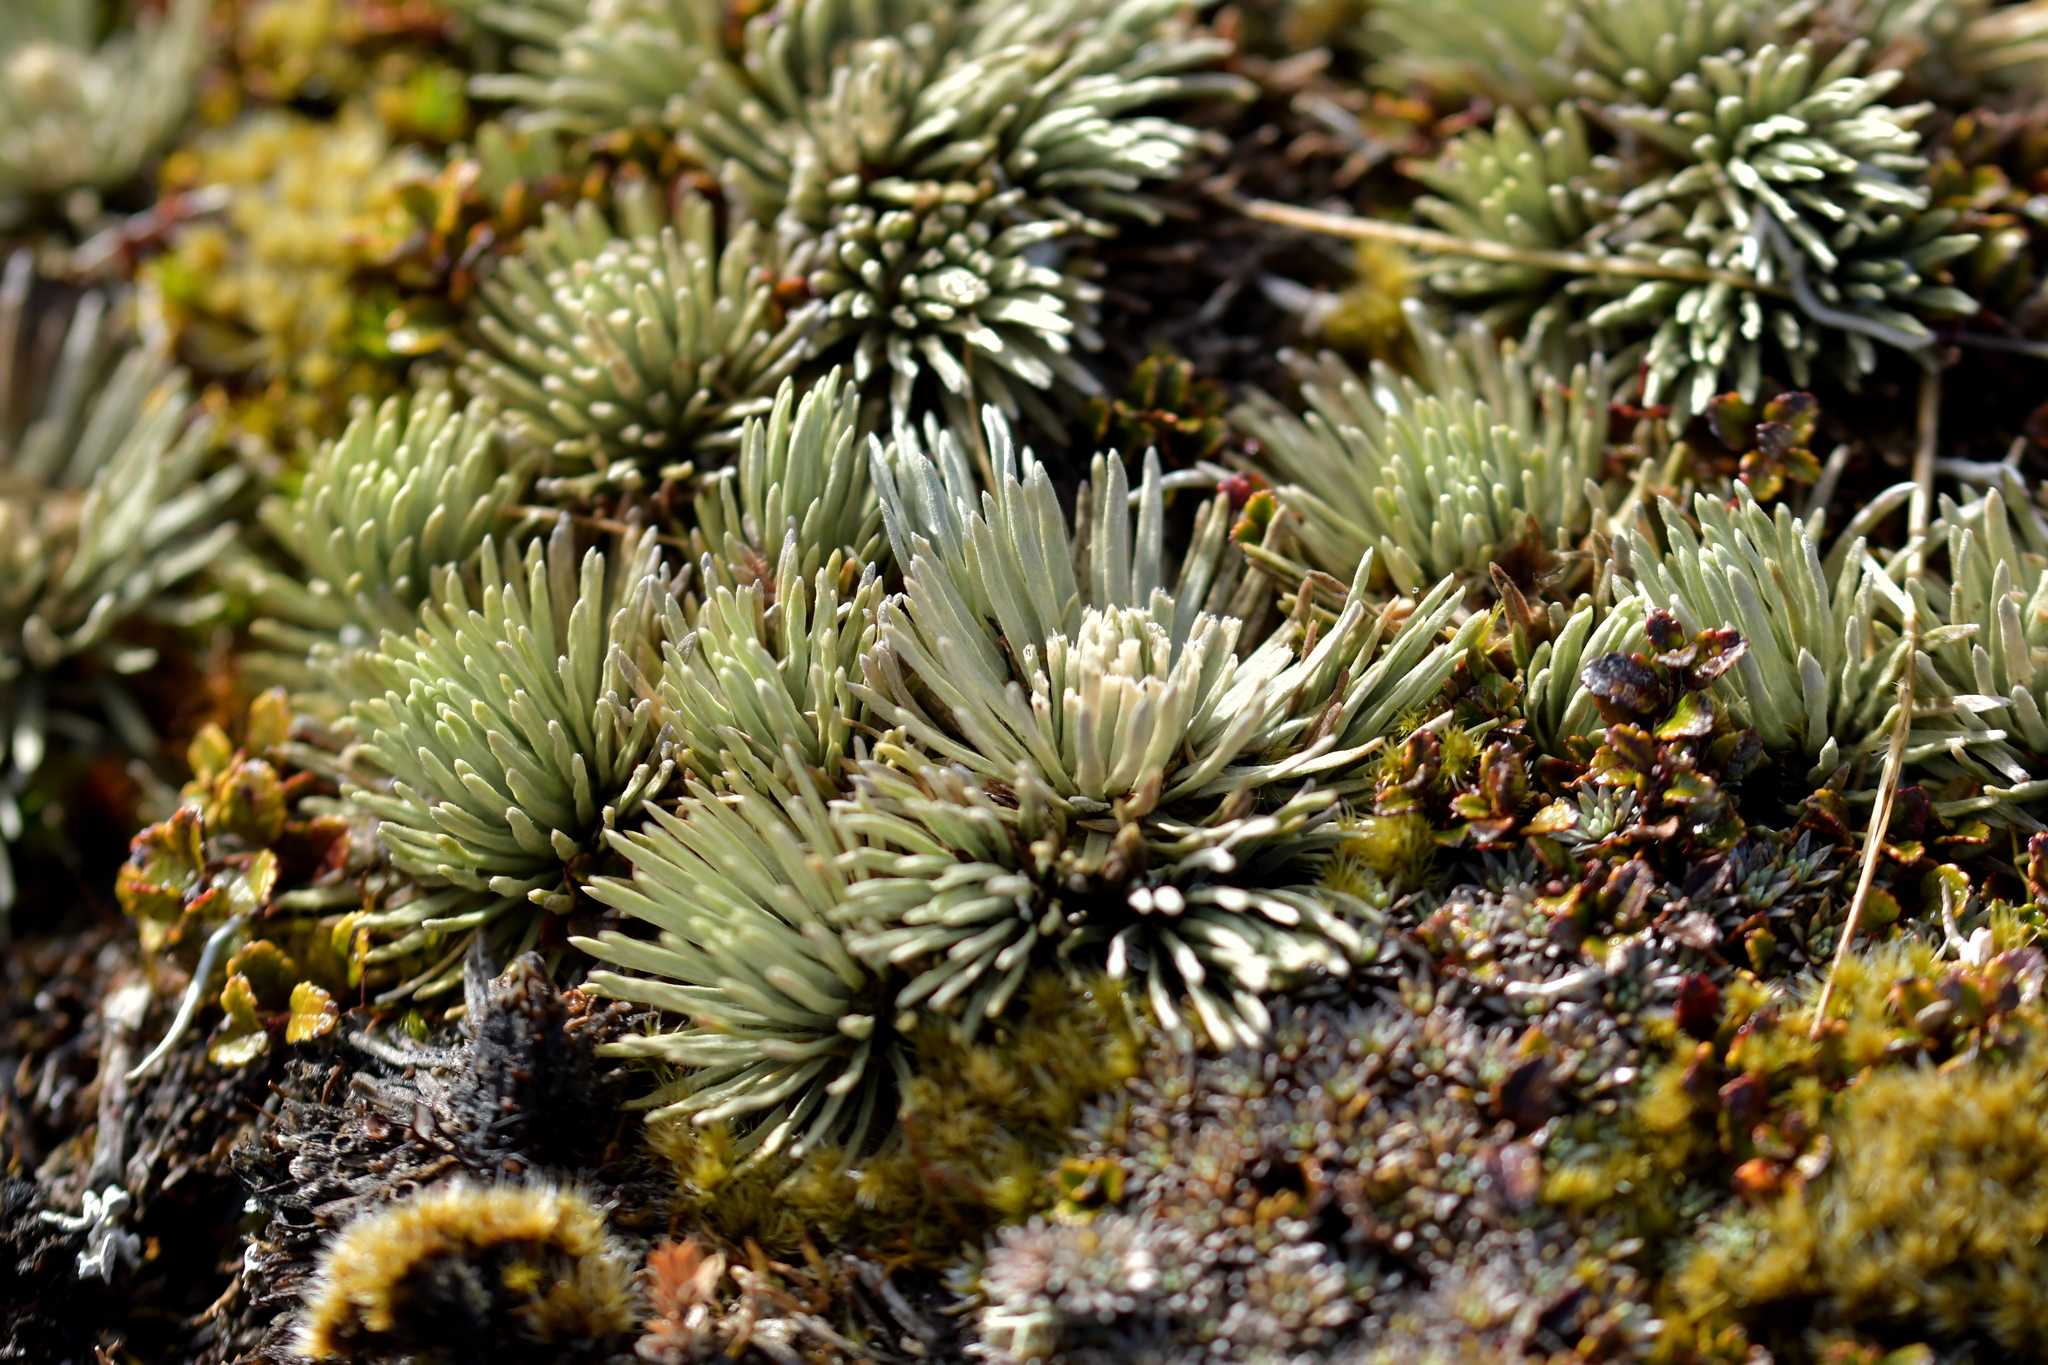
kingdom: Plantae
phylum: Tracheophyta
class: Magnoliopsida
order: Asterales
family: Asteraceae
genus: Celmisia
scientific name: Celmisia sessiliflora
